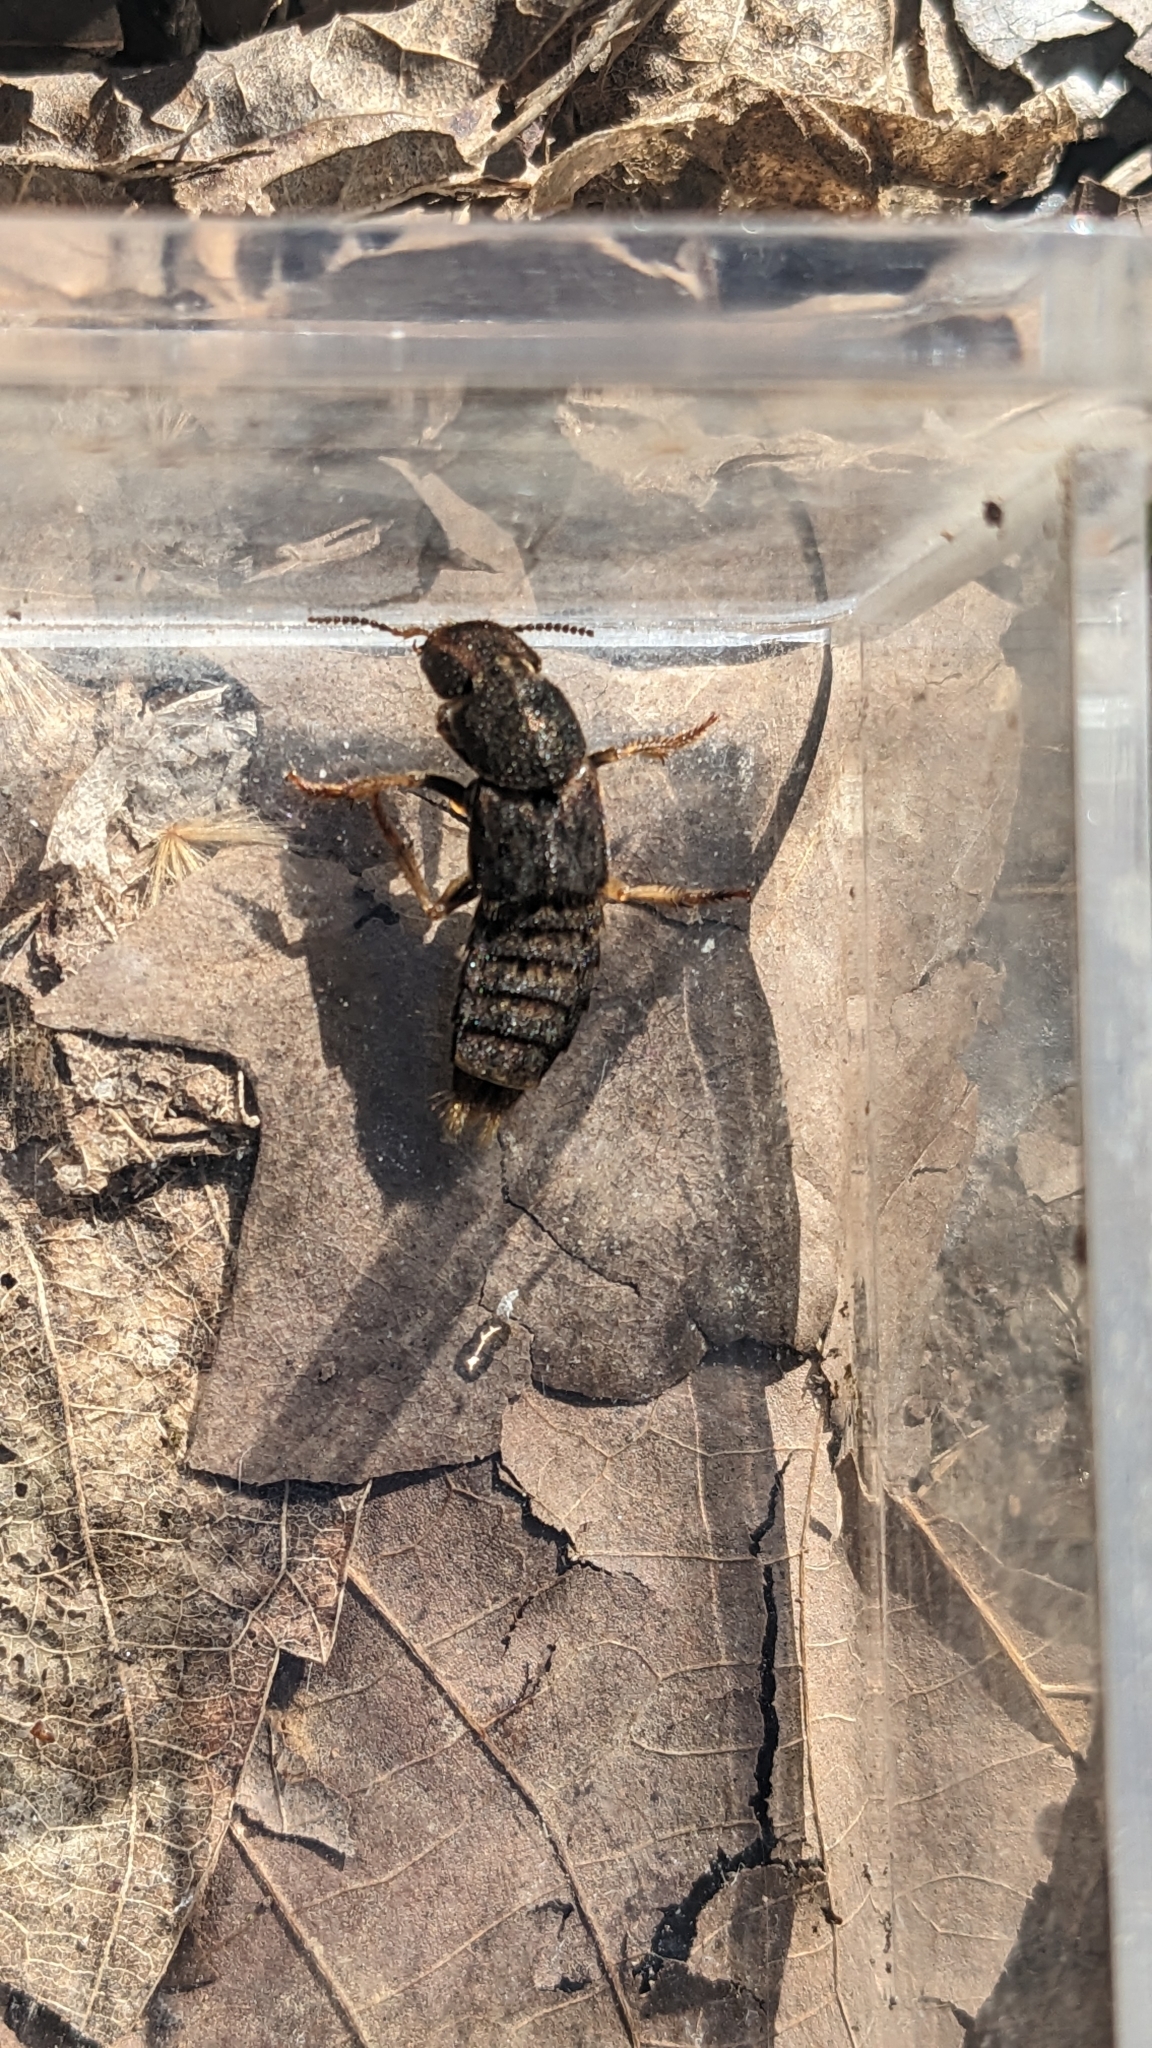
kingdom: Animalia
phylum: Arthropoda
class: Insecta
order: Coleoptera
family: Staphylinidae
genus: Platydracus
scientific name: Platydracus maculosus
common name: Brown rove beetle
